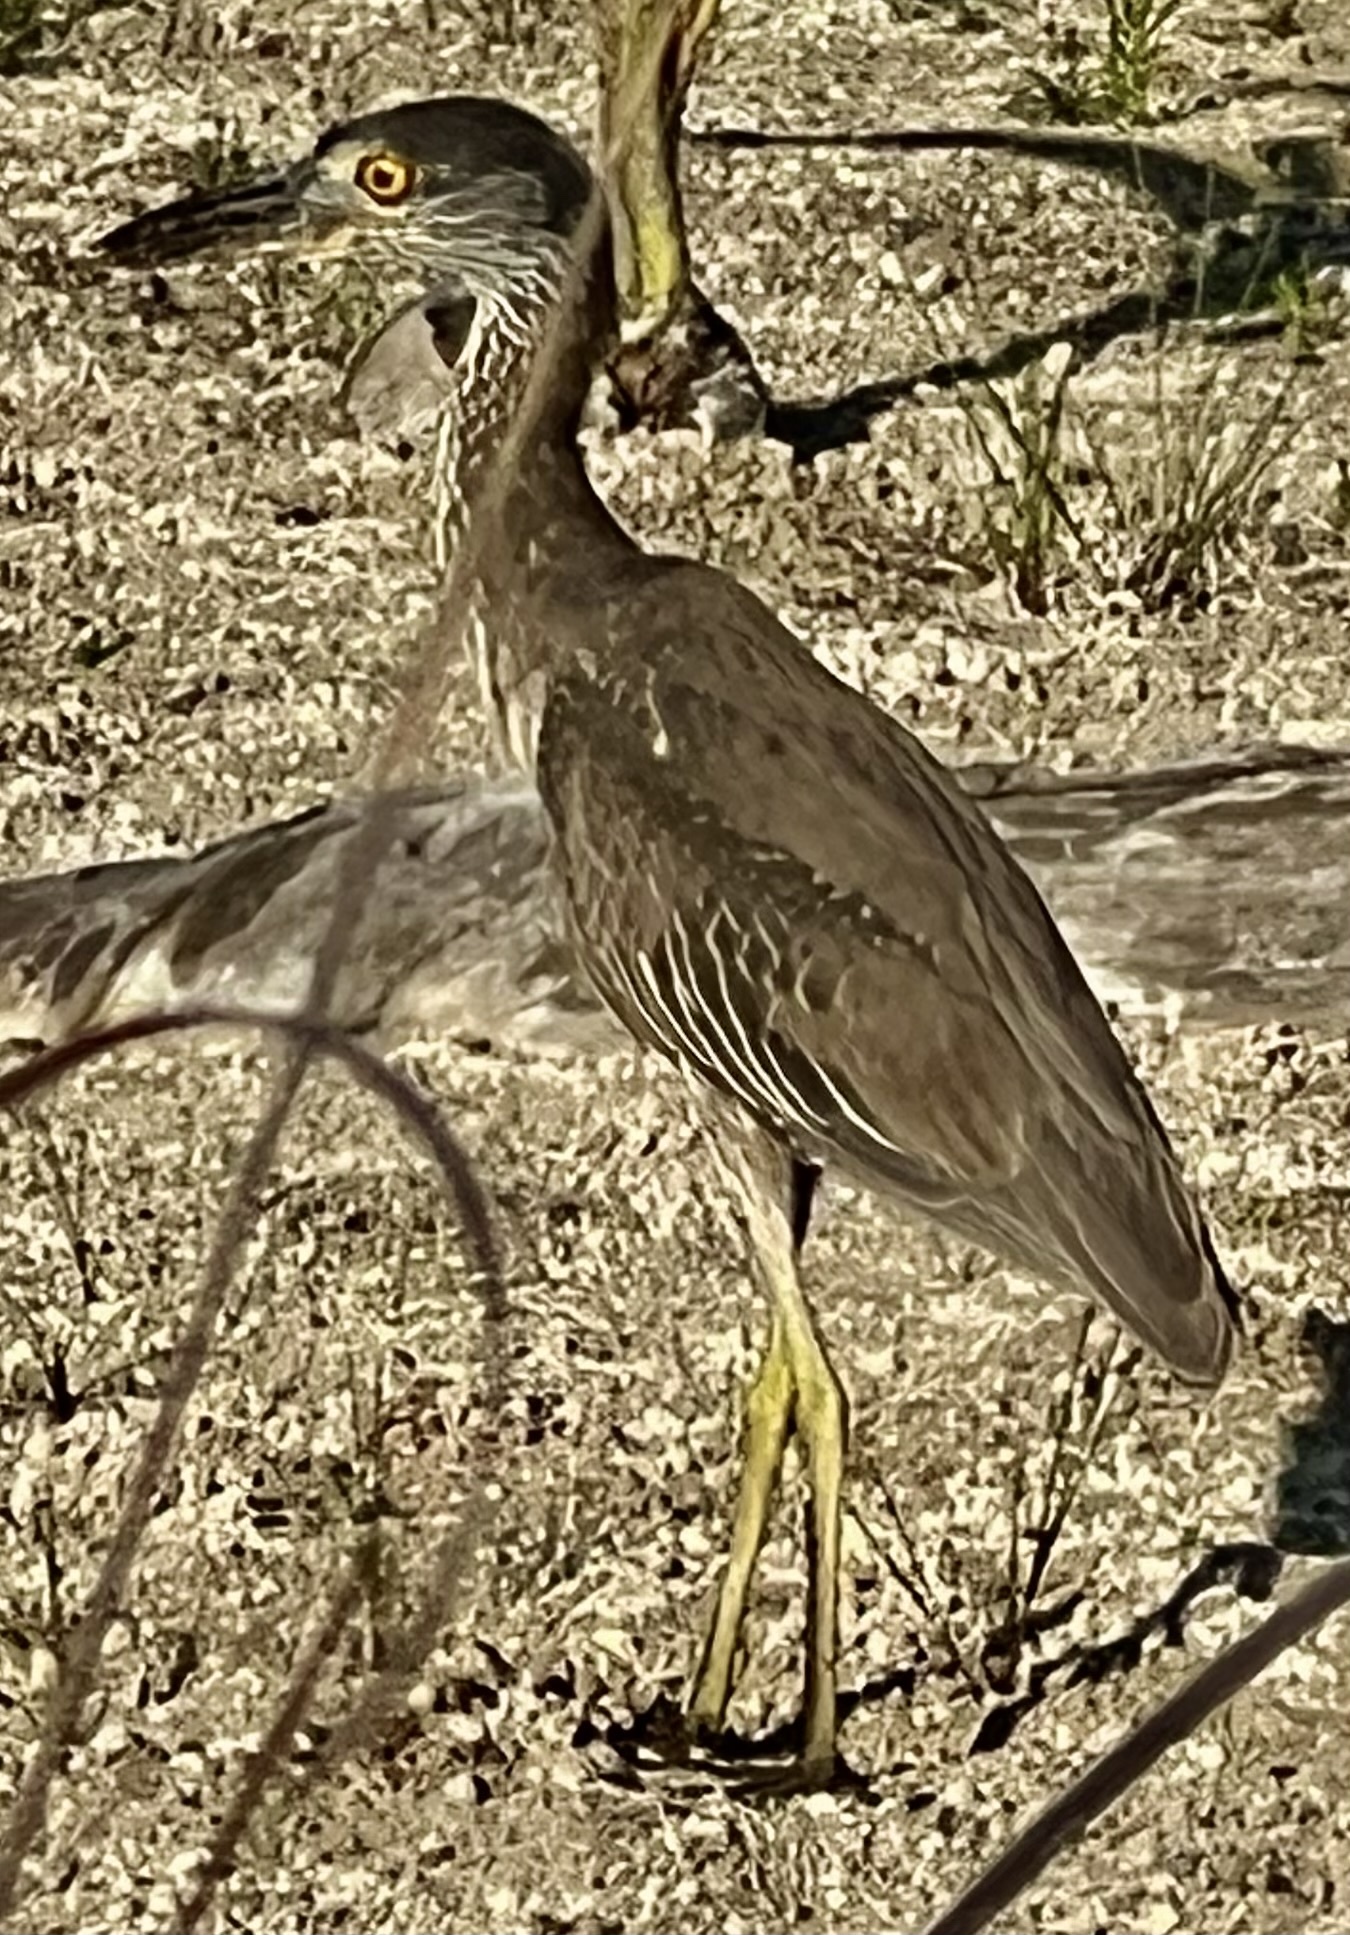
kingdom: Animalia
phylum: Chordata
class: Aves
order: Pelecaniformes
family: Ardeidae
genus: Nyctanassa
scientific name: Nyctanassa violacea
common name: Yellow-crowned night heron
